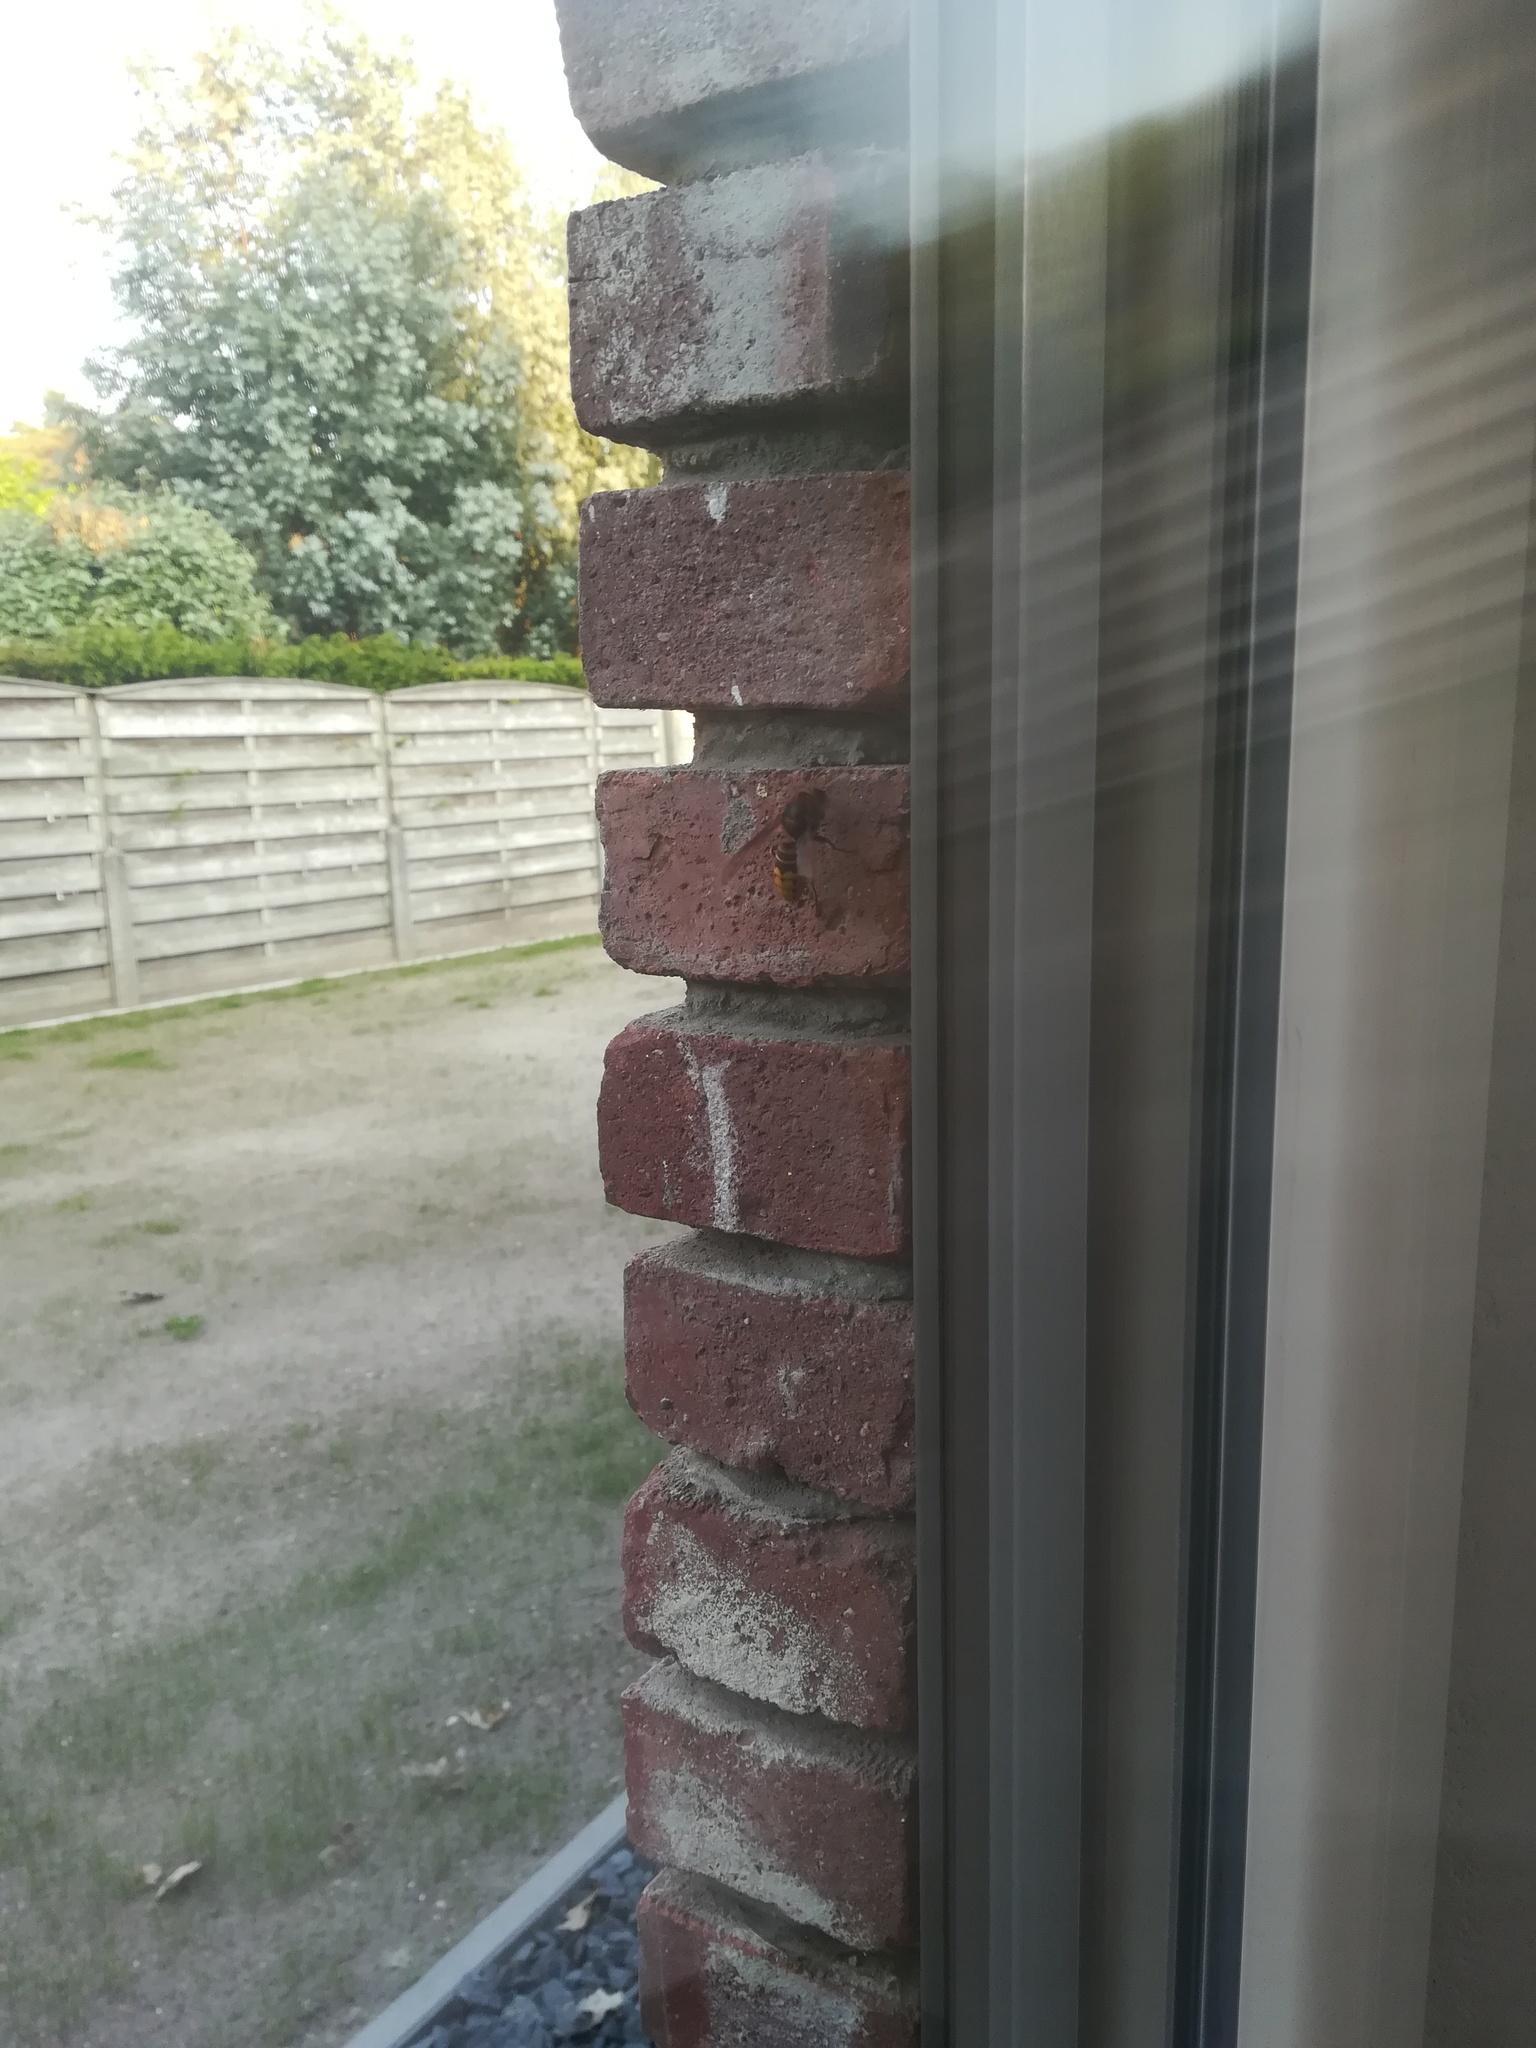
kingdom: Animalia
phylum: Arthropoda
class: Insecta
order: Hymenoptera
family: Vespidae
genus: Vespa
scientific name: Vespa crabro
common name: Hornet
